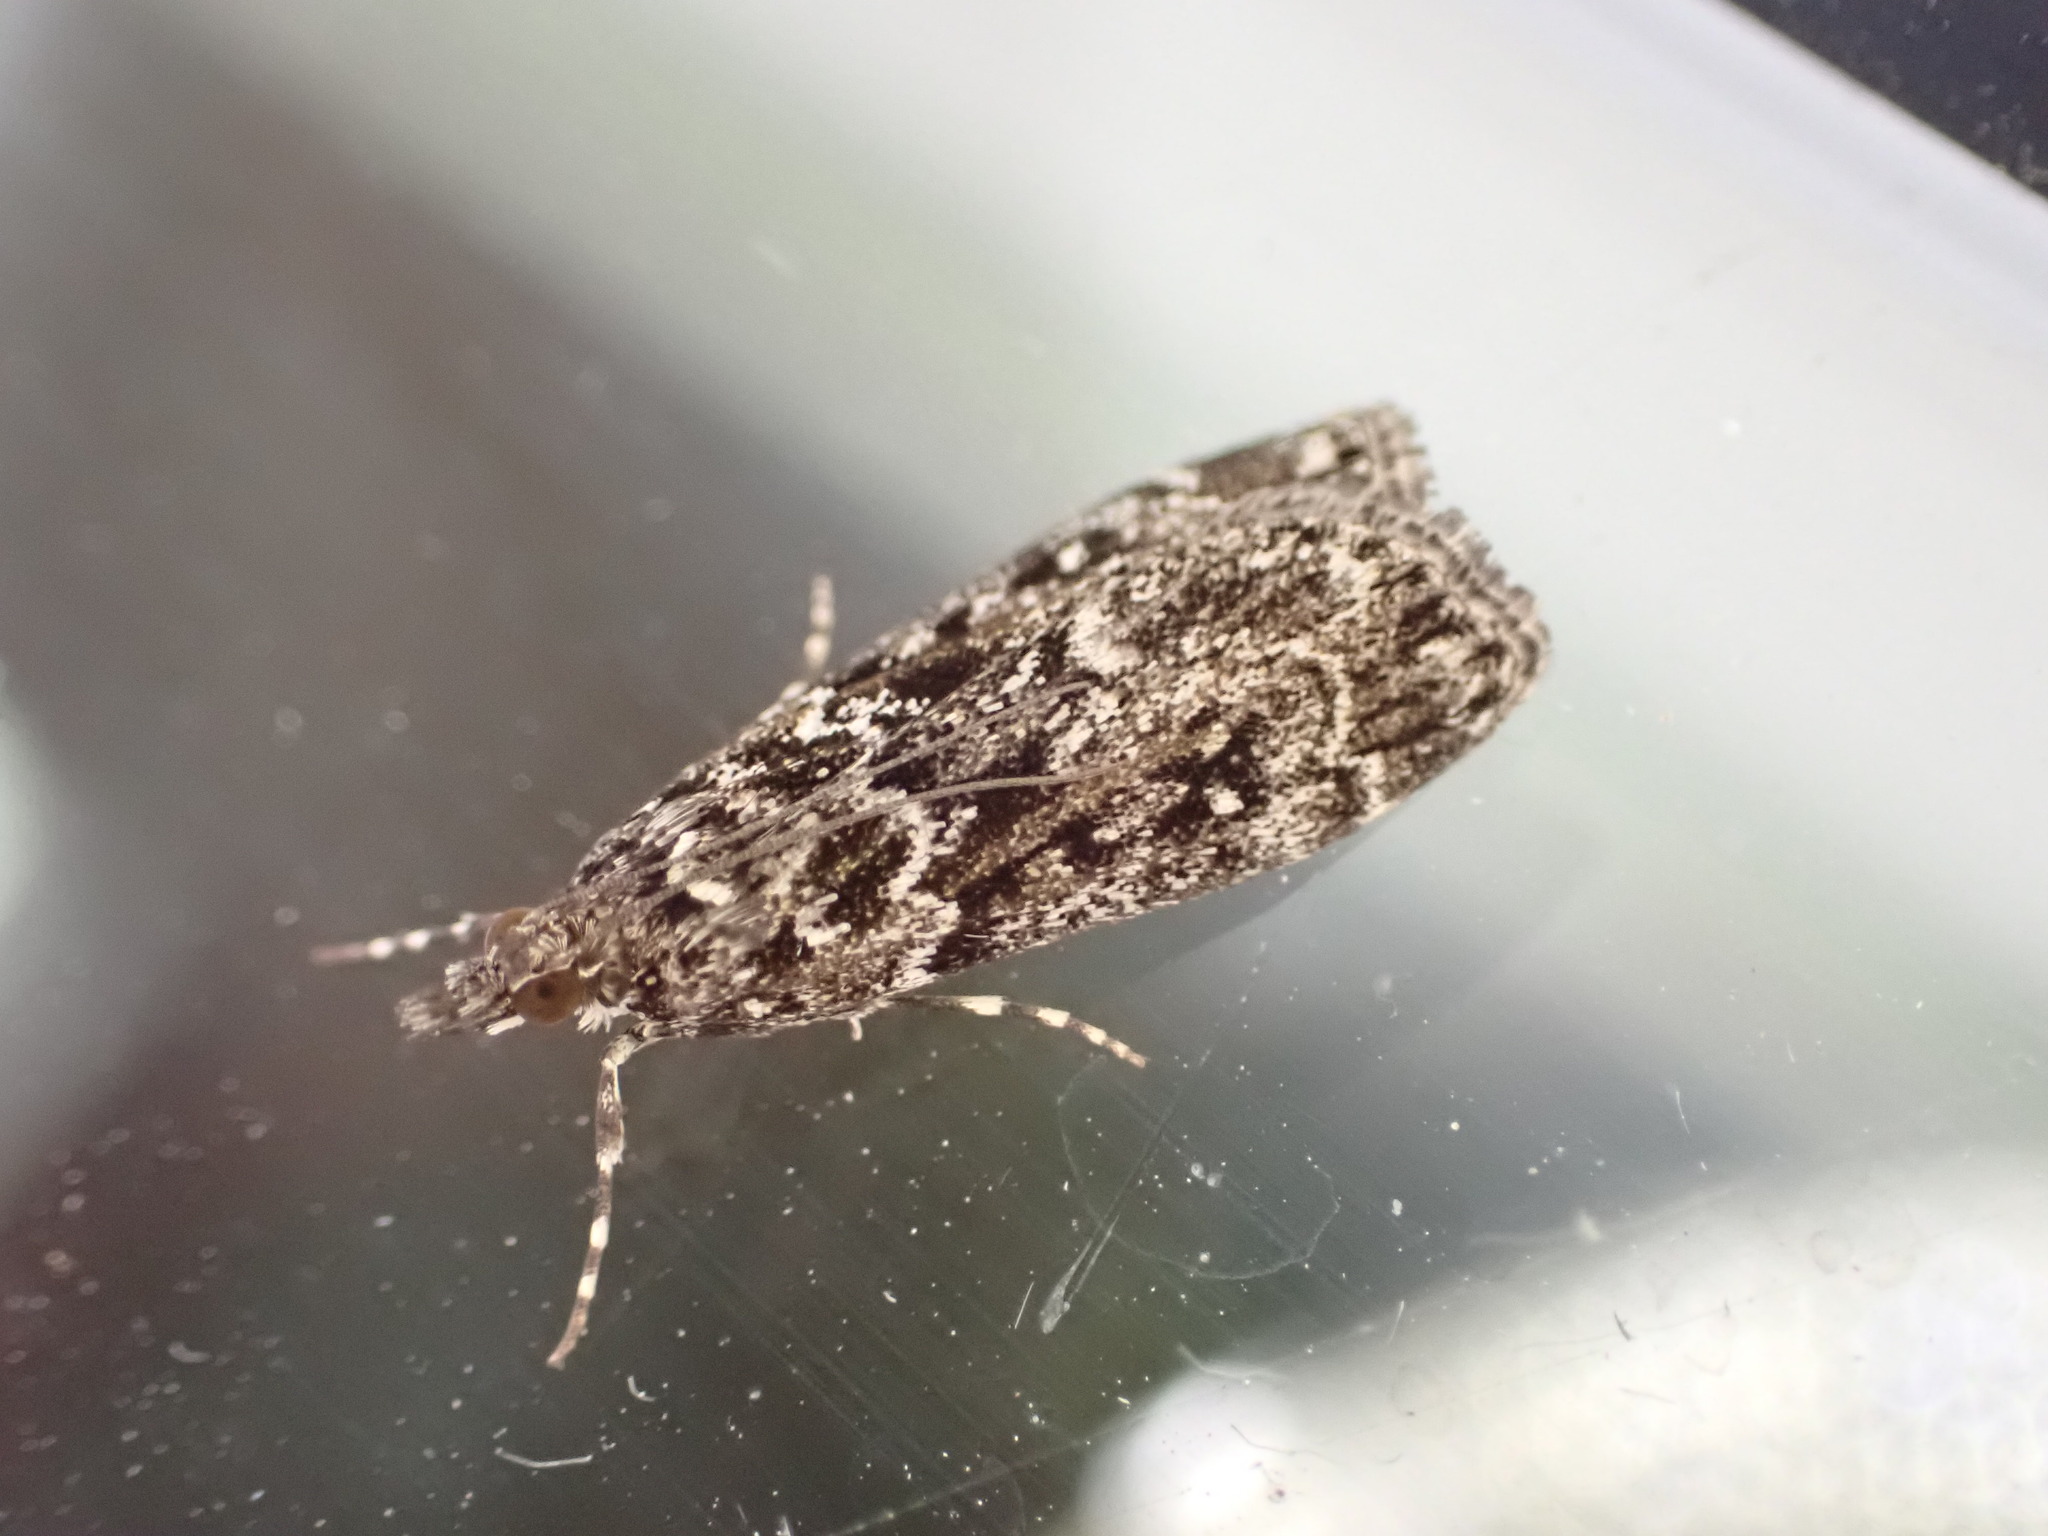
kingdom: Animalia
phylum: Arthropoda
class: Insecta
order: Lepidoptera
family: Crambidae
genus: Eudonia
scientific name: Eudonia philerga
